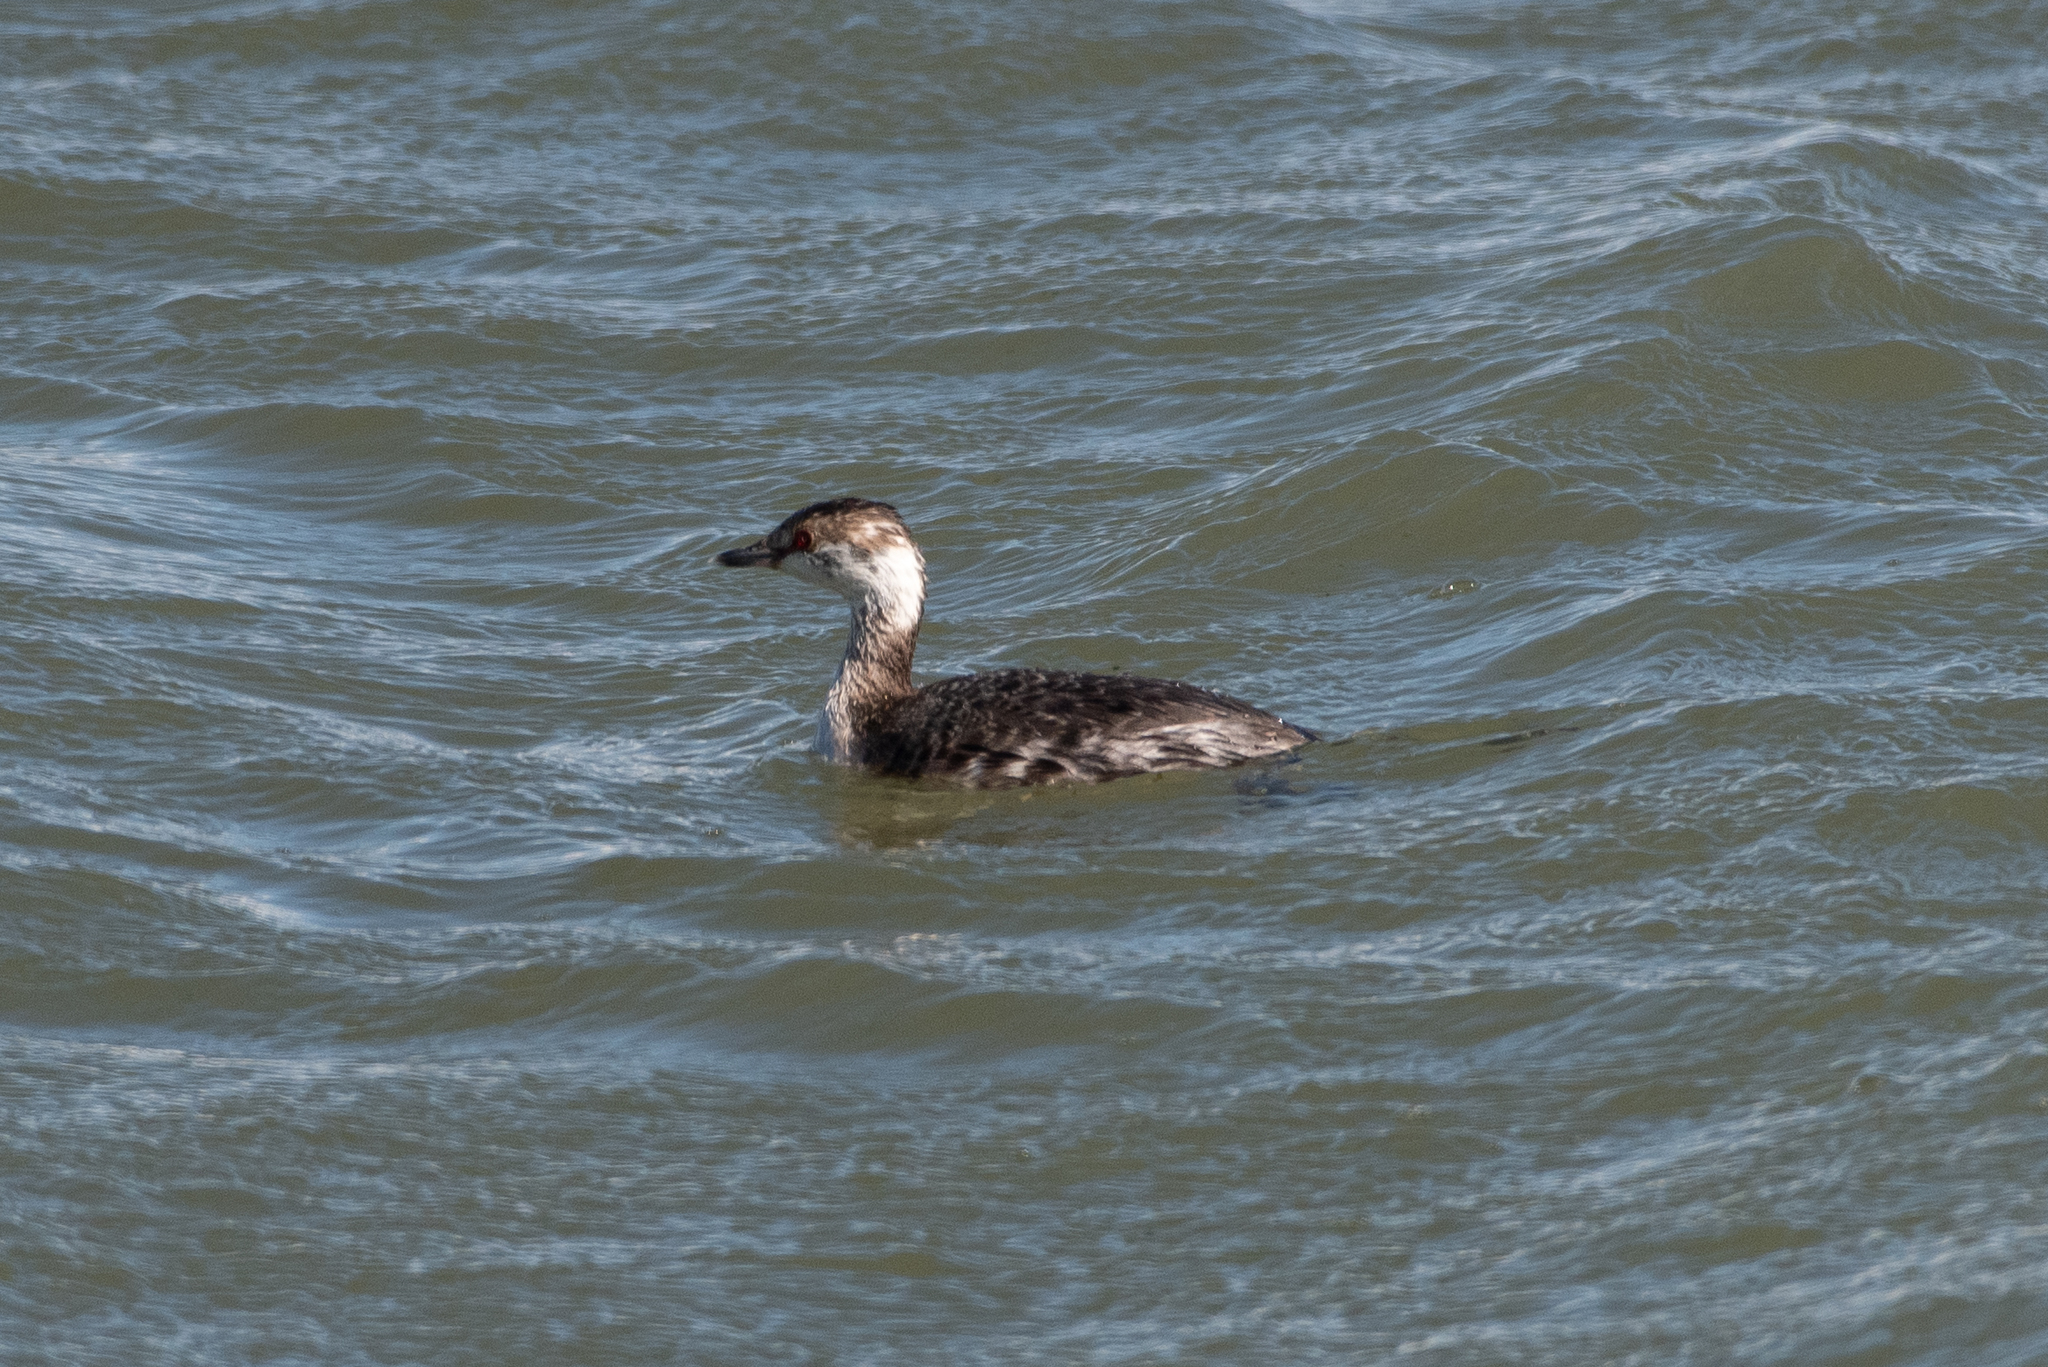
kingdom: Animalia
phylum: Chordata
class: Aves
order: Podicipediformes
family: Podicipedidae
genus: Podiceps
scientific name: Podiceps auritus
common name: Horned grebe
